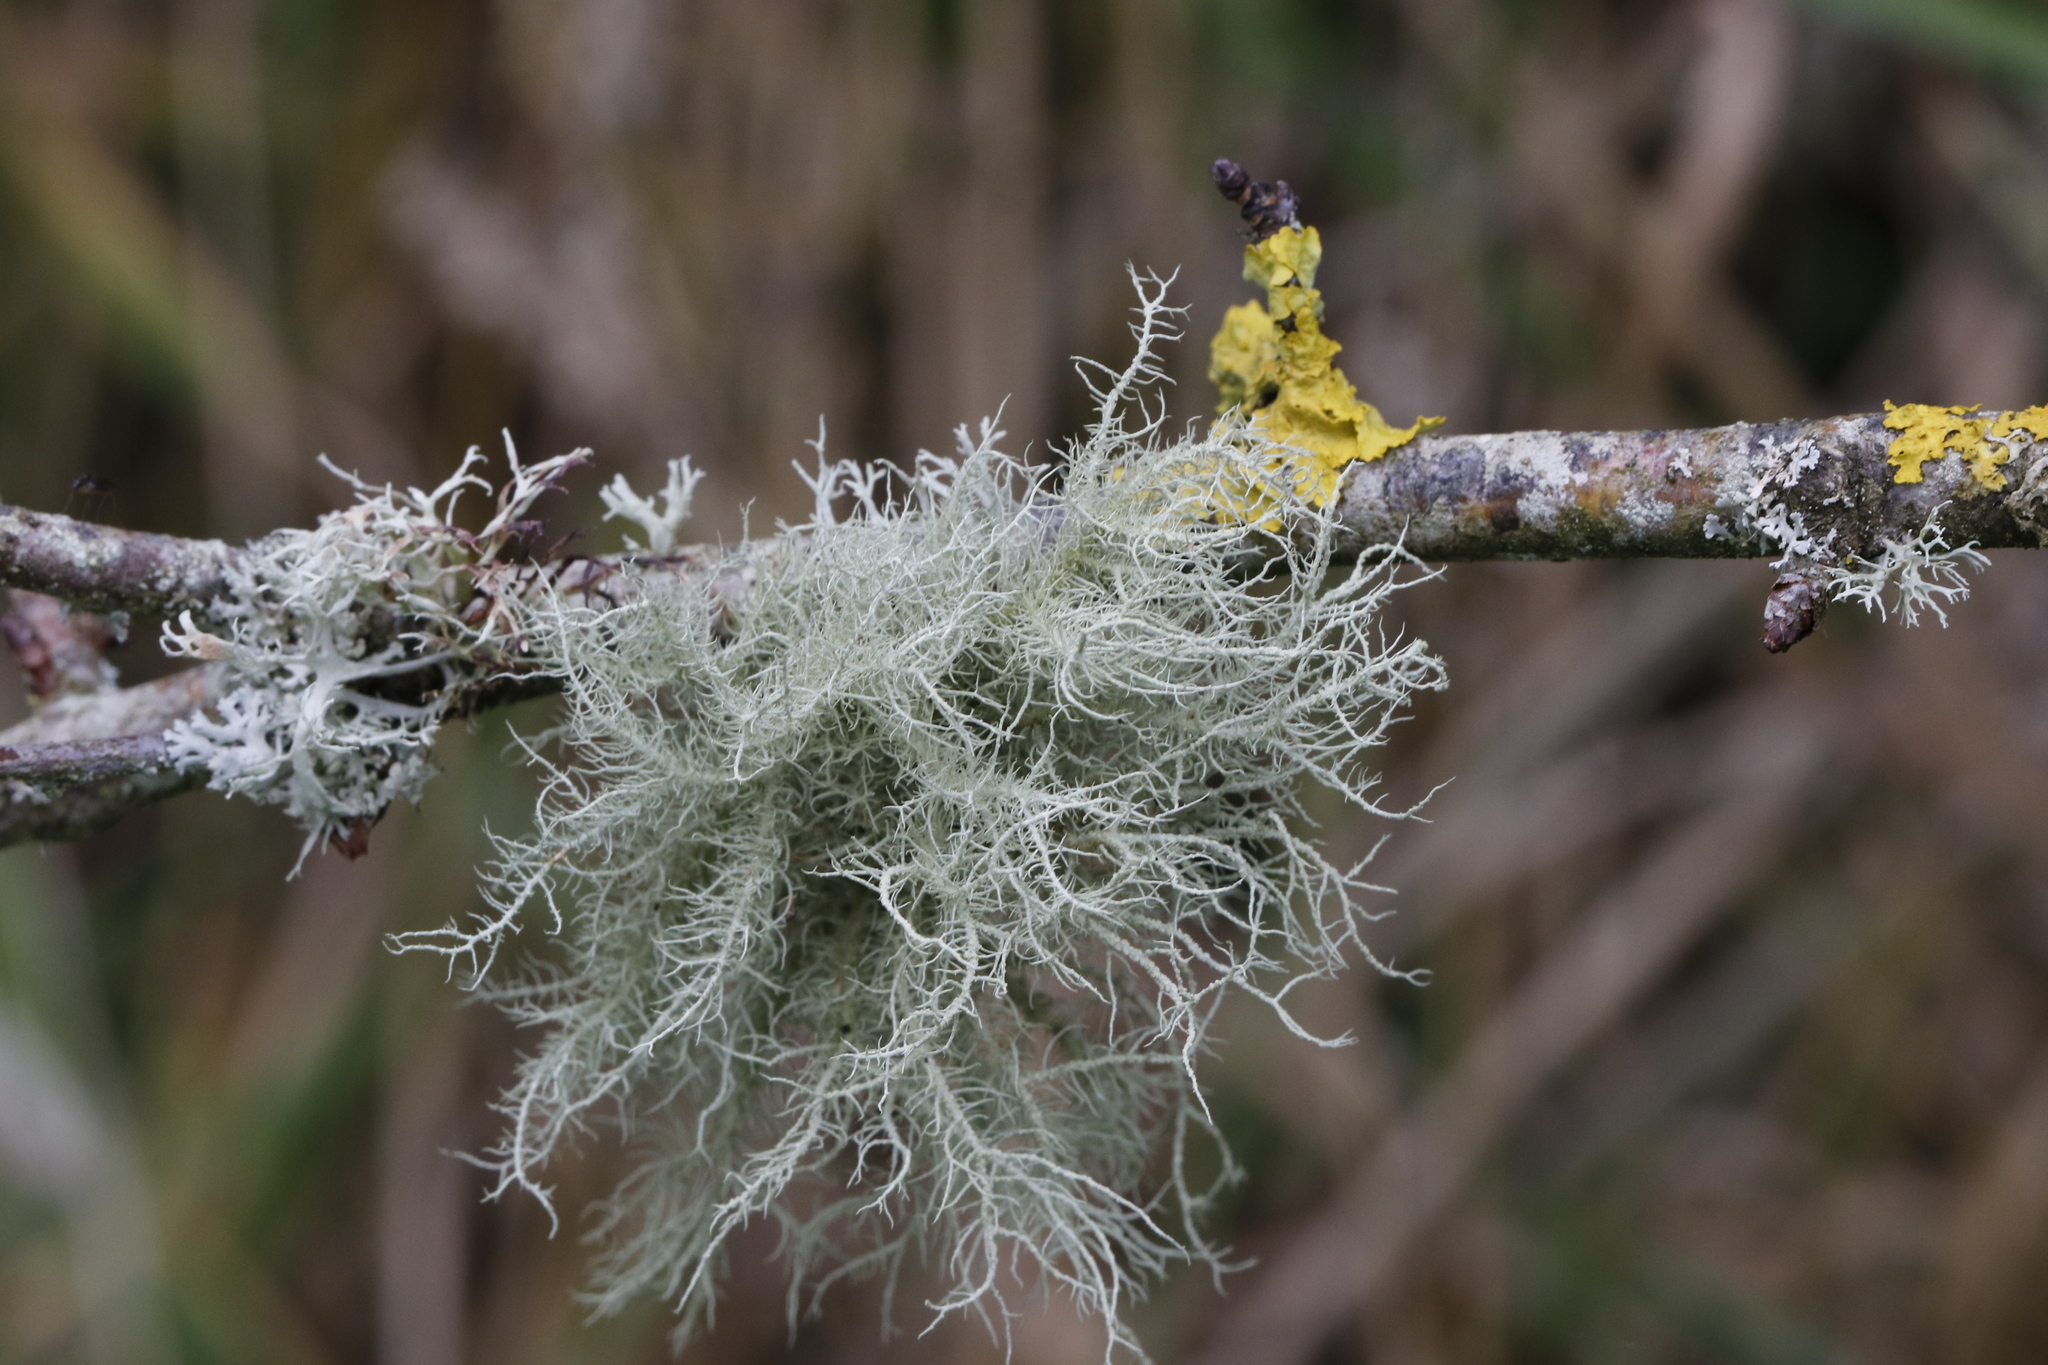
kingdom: Fungi
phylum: Ascomycota
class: Lecanoromycetes
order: Lecanorales
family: Parmeliaceae
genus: Usnea
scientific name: Usnea
